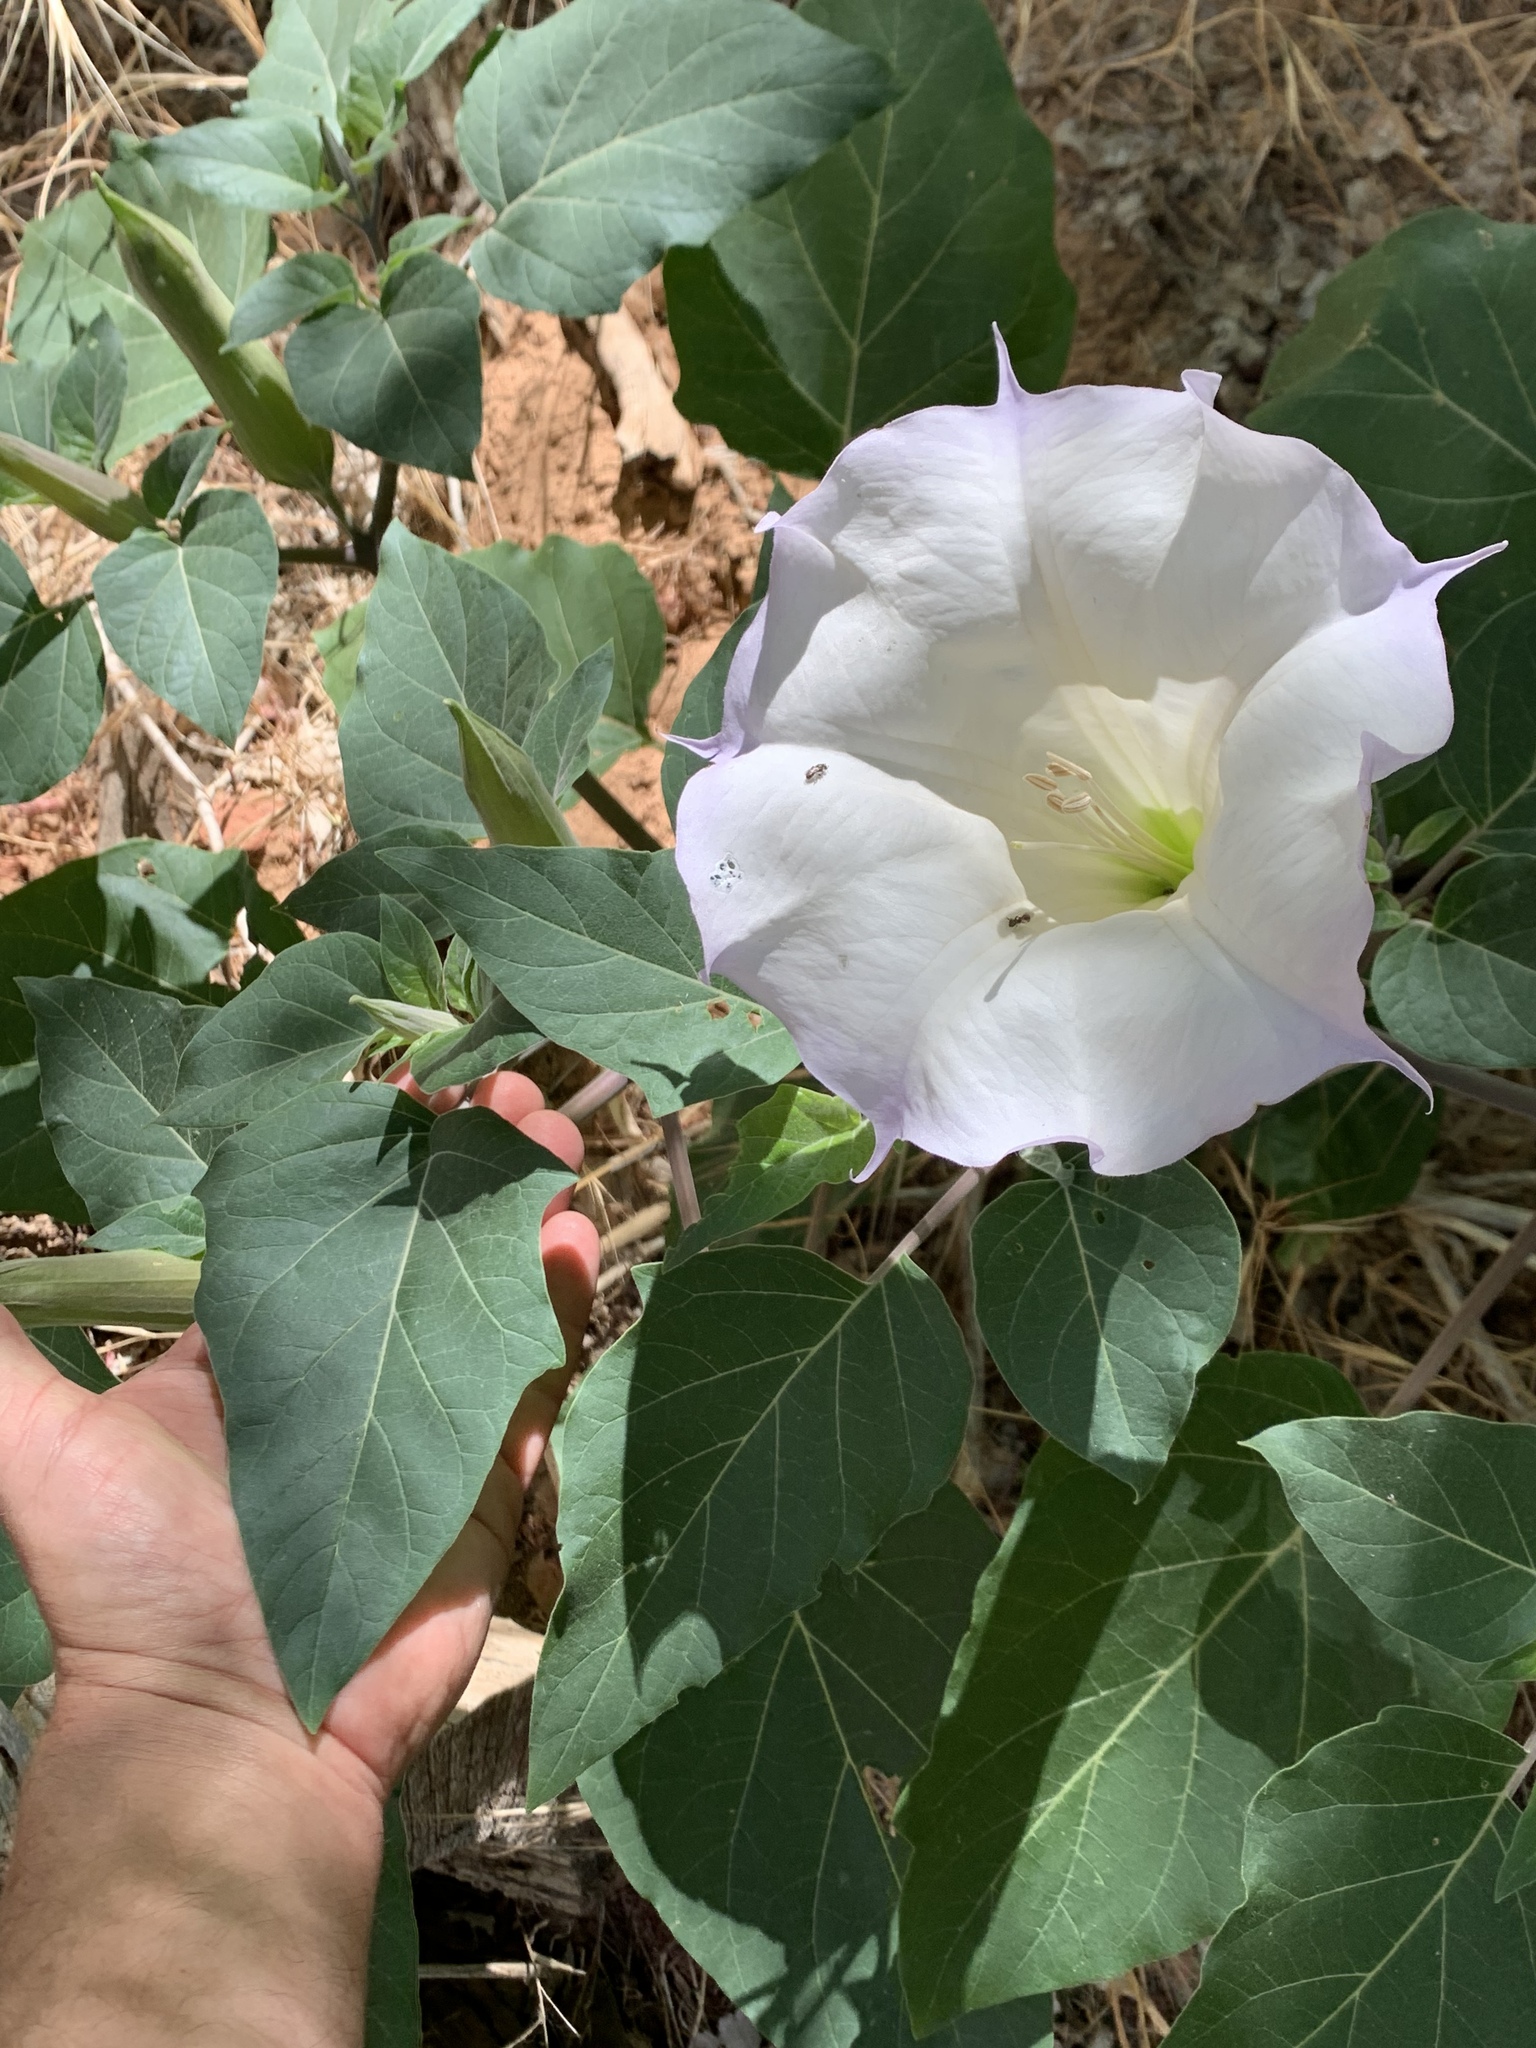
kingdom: Plantae
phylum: Tracheophyta
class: Magnoliopsida
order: Solanales
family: Solanaceae
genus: Datura
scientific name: Datura wrightii
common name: Sacred thorn-apple
